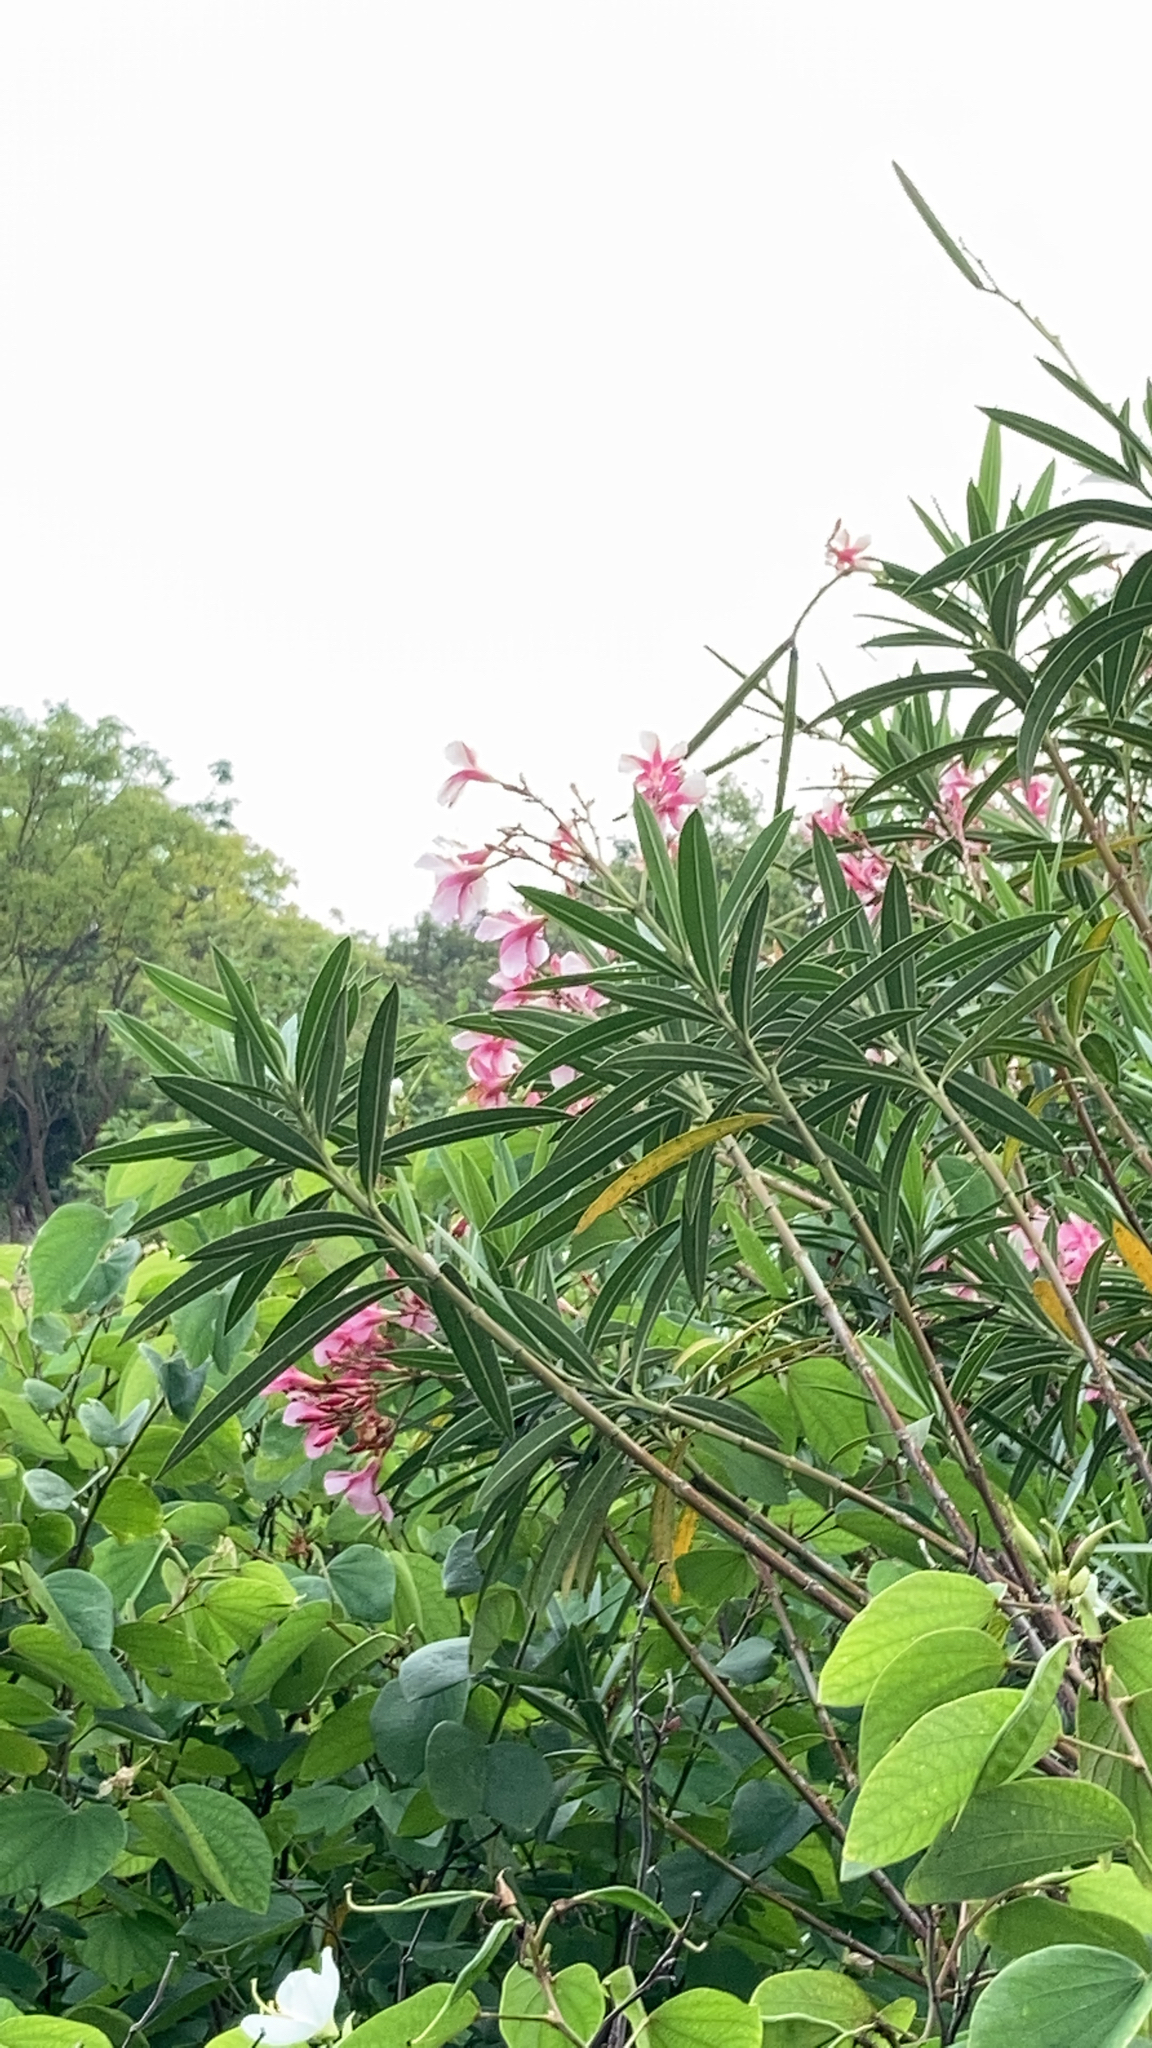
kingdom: Plantae
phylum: Tracheophyta
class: Magnoliopsida
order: Gentianales
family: Apocynaceae
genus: Nerium
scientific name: Nerium oleander
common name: Oleander
